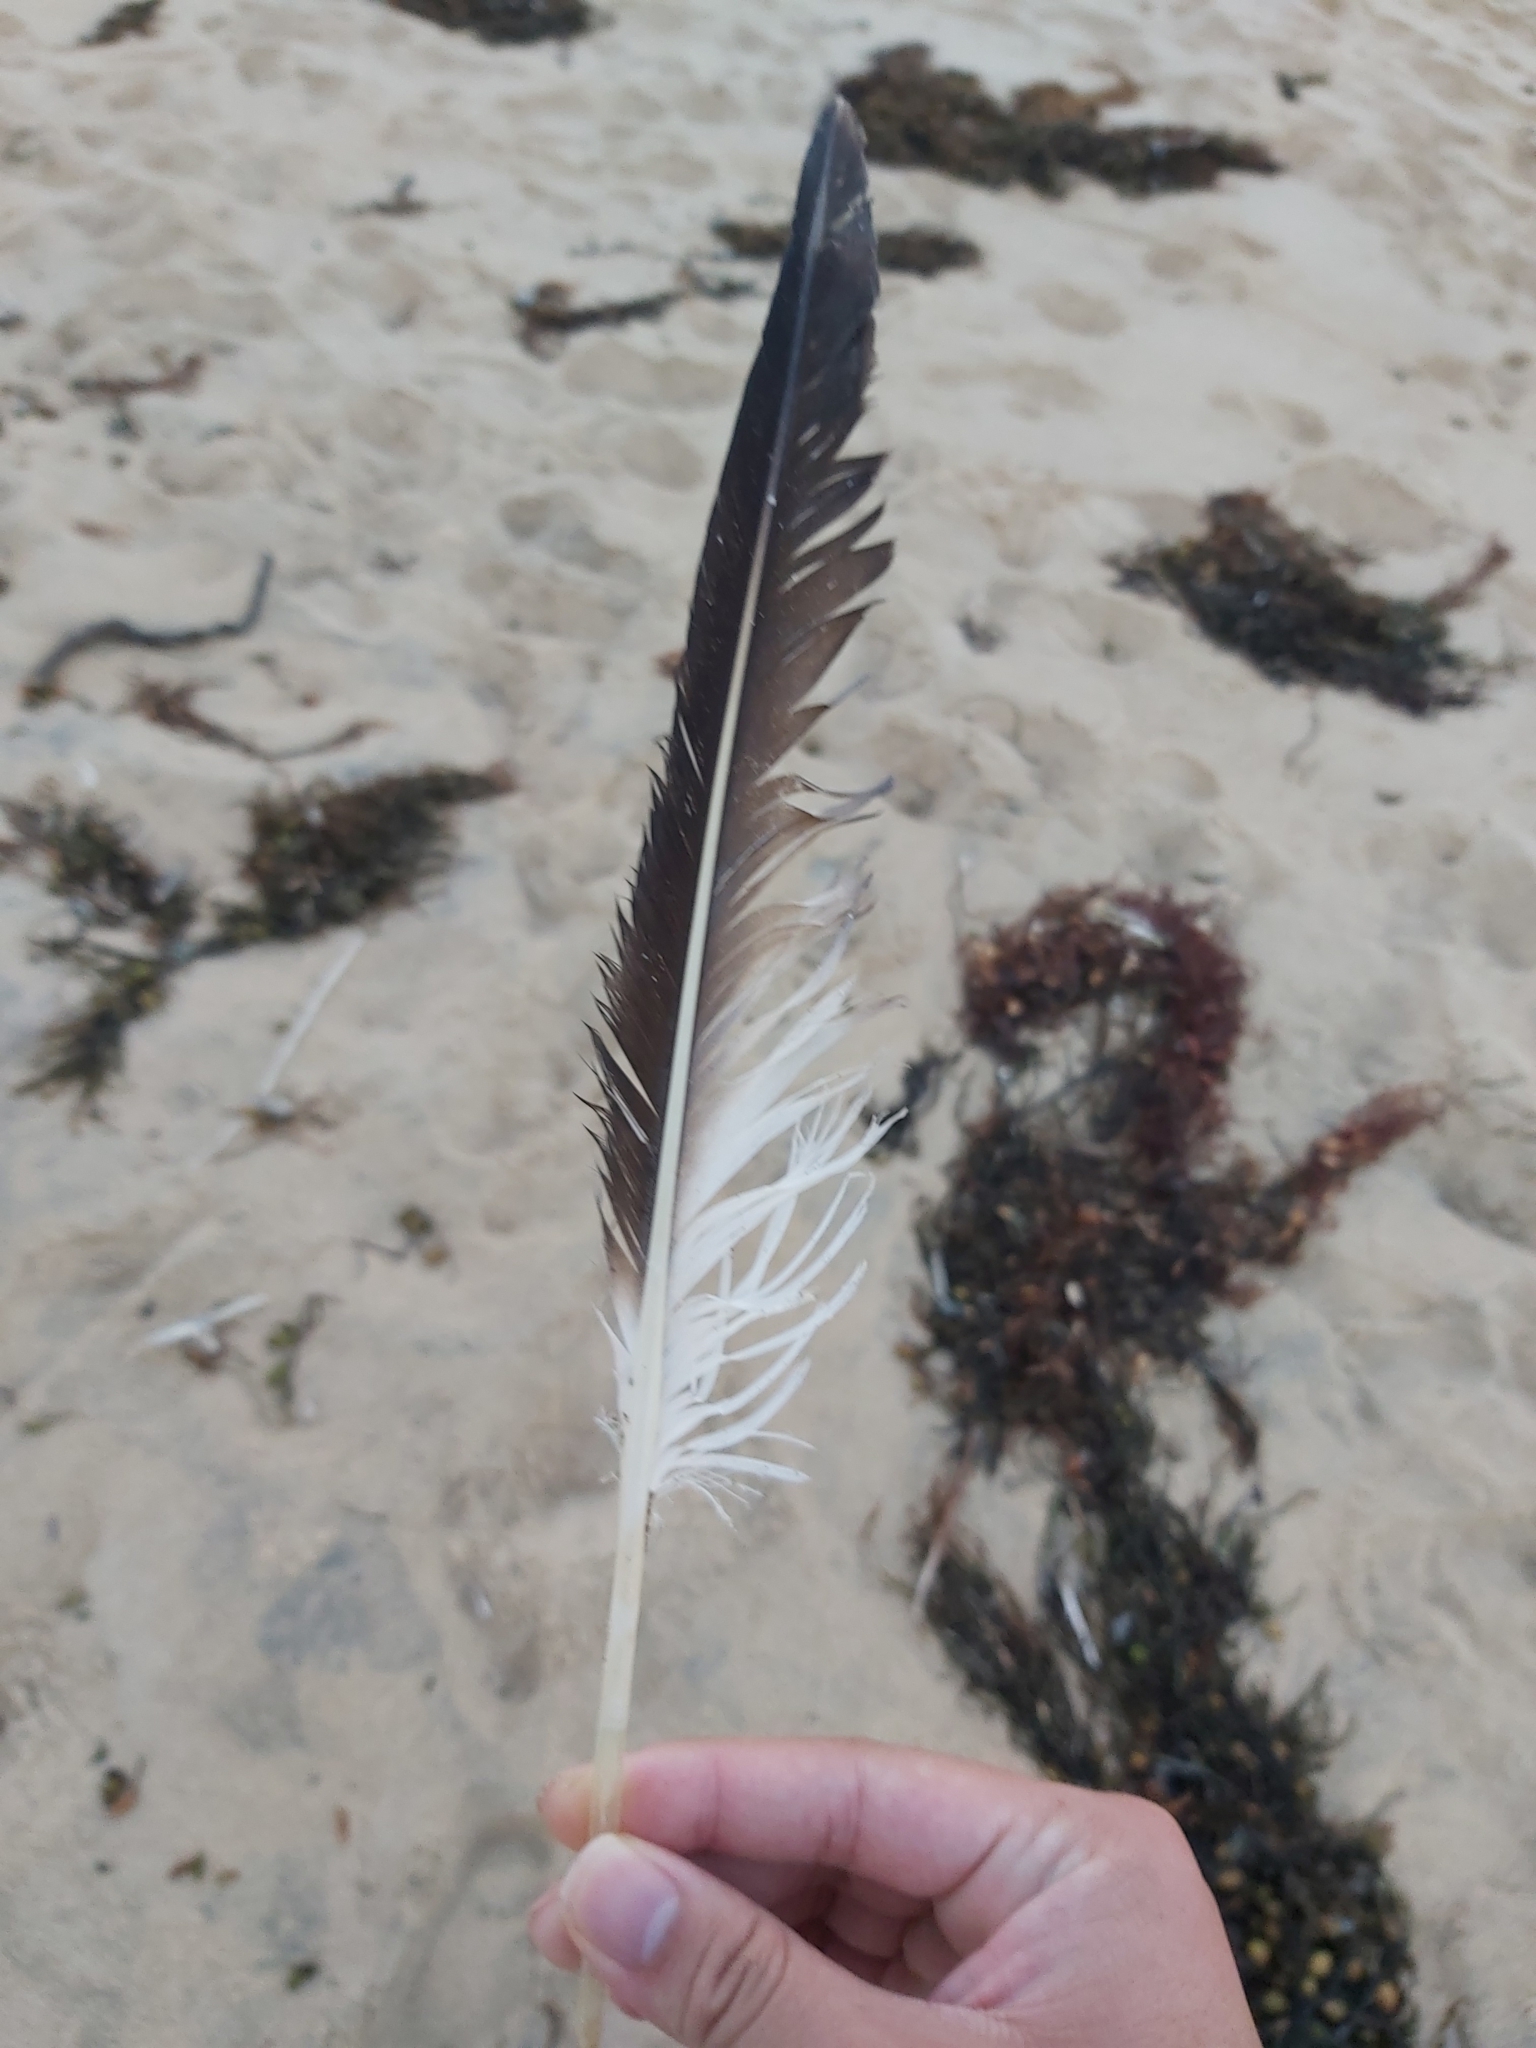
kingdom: Animalia
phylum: Chordata
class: Aves
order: Suliformes
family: Sulidae
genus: Morus
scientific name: Morus serrator
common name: Australasian gannet
